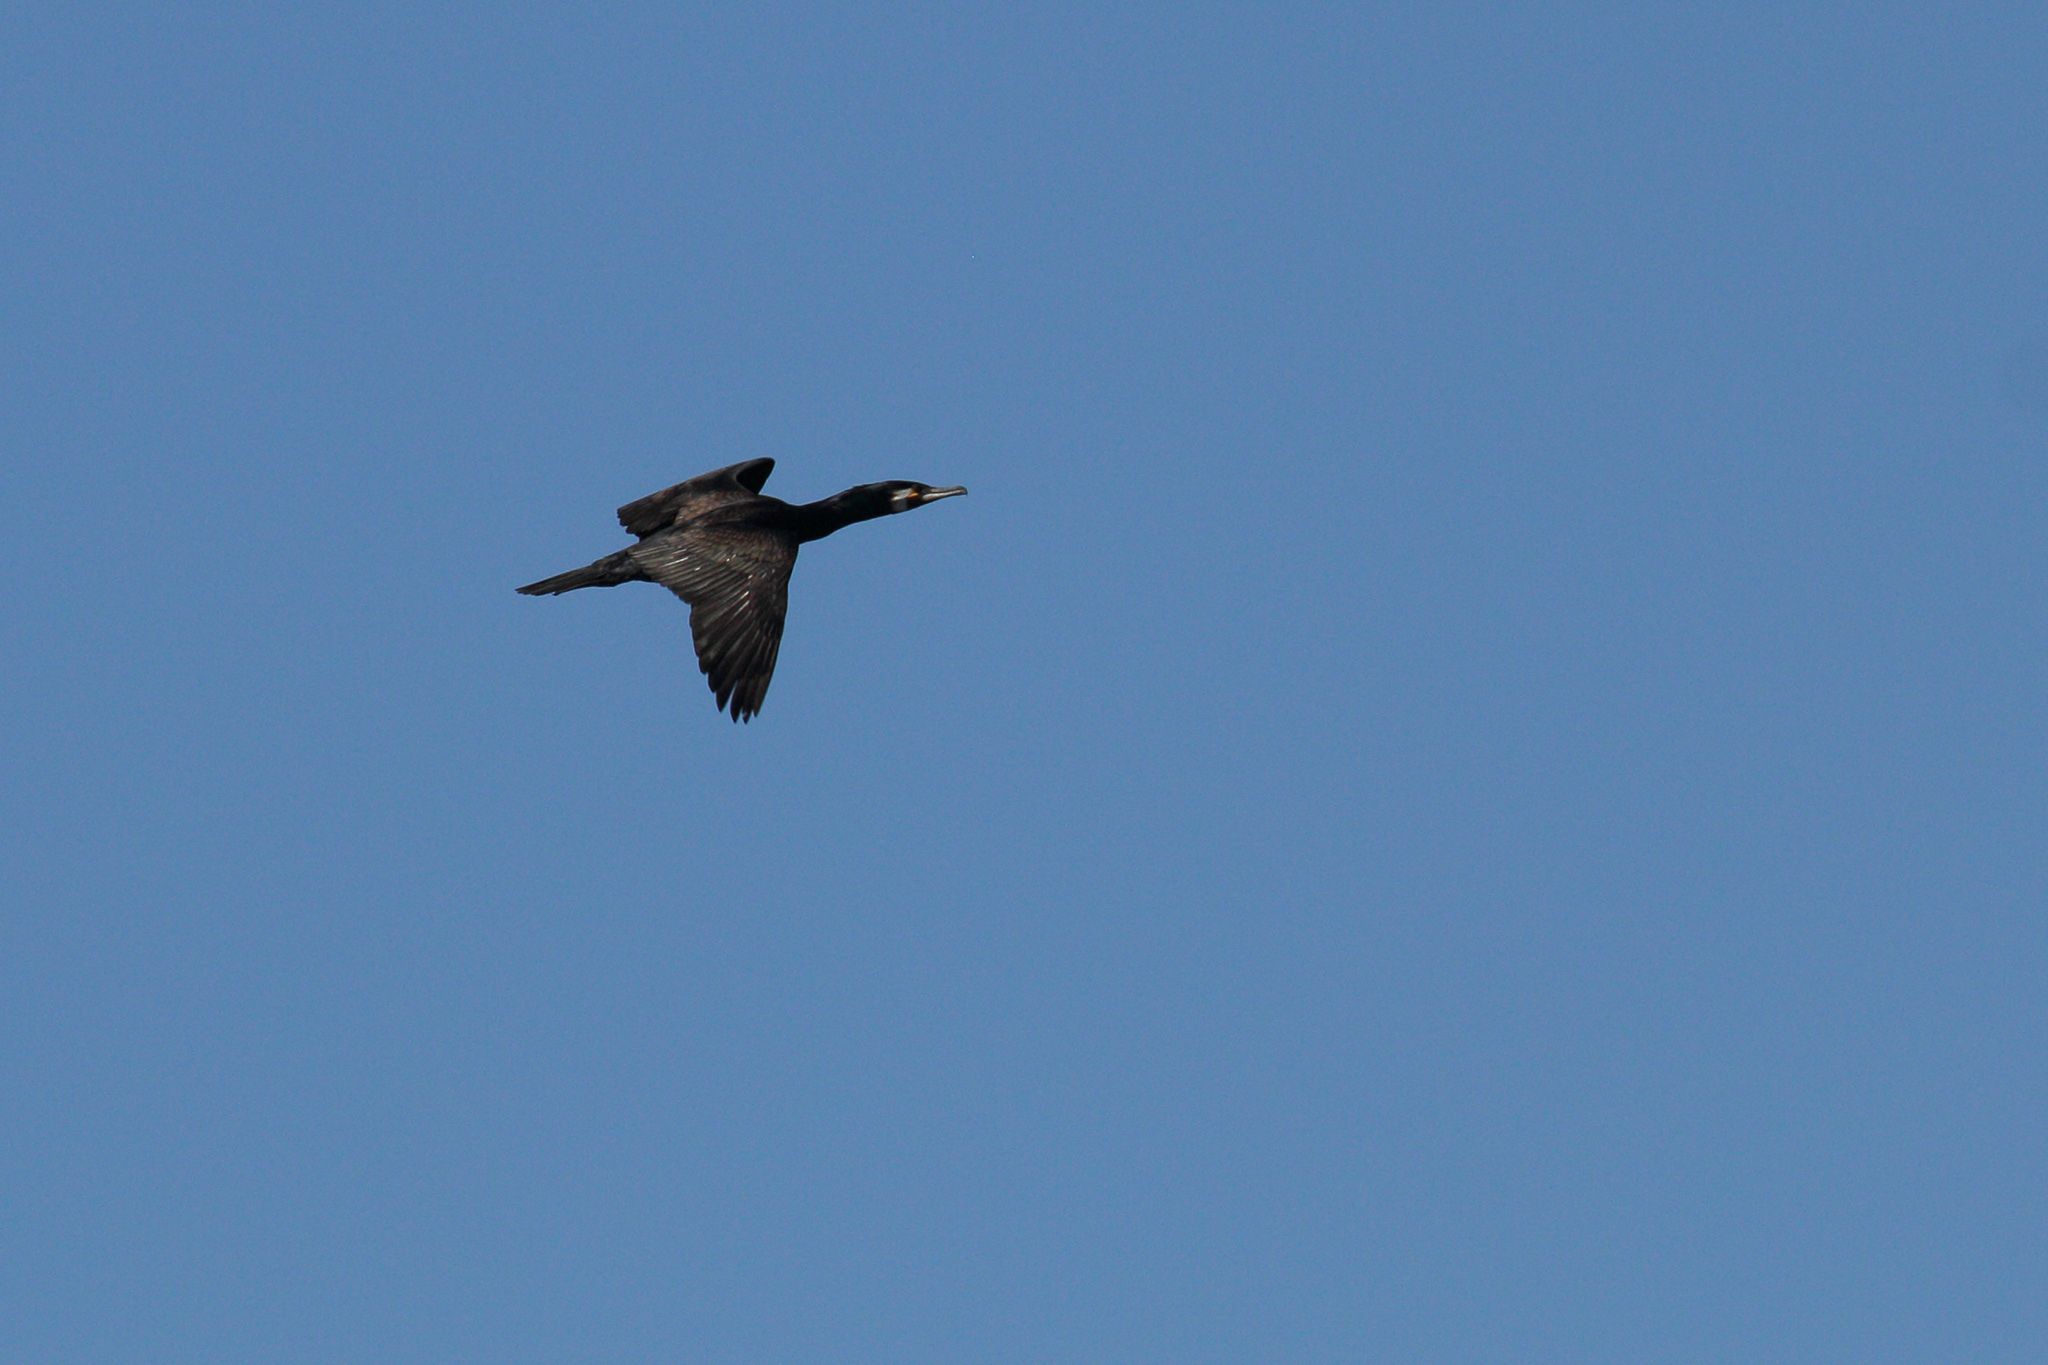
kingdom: Animalia
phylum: Chordata
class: Aves
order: Suliformes
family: Phalacrocoracidae
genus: Phalacrocorax
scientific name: Phalacrocorax carbo
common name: Great cormorant
